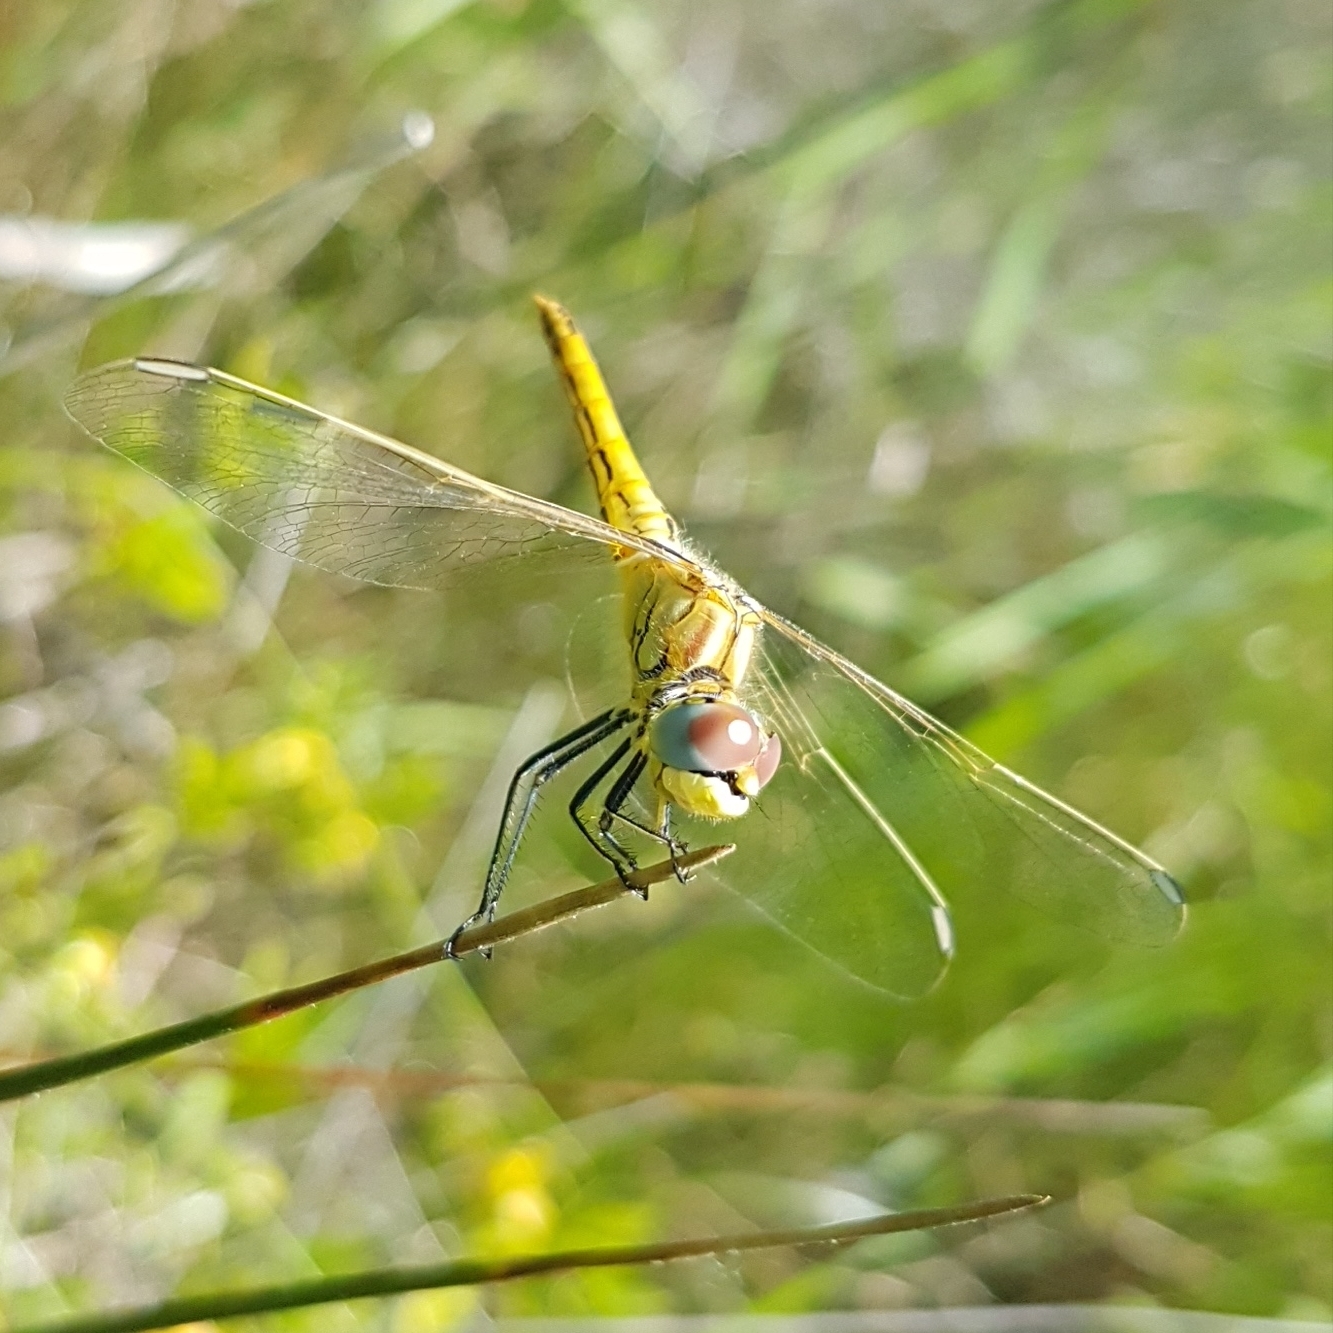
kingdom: Animalia
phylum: Arthropoda
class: Insecta
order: Odonata
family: Libellulidae
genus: Sympetrum
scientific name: Sympetrum fonscolombii
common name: Red-veined darter
